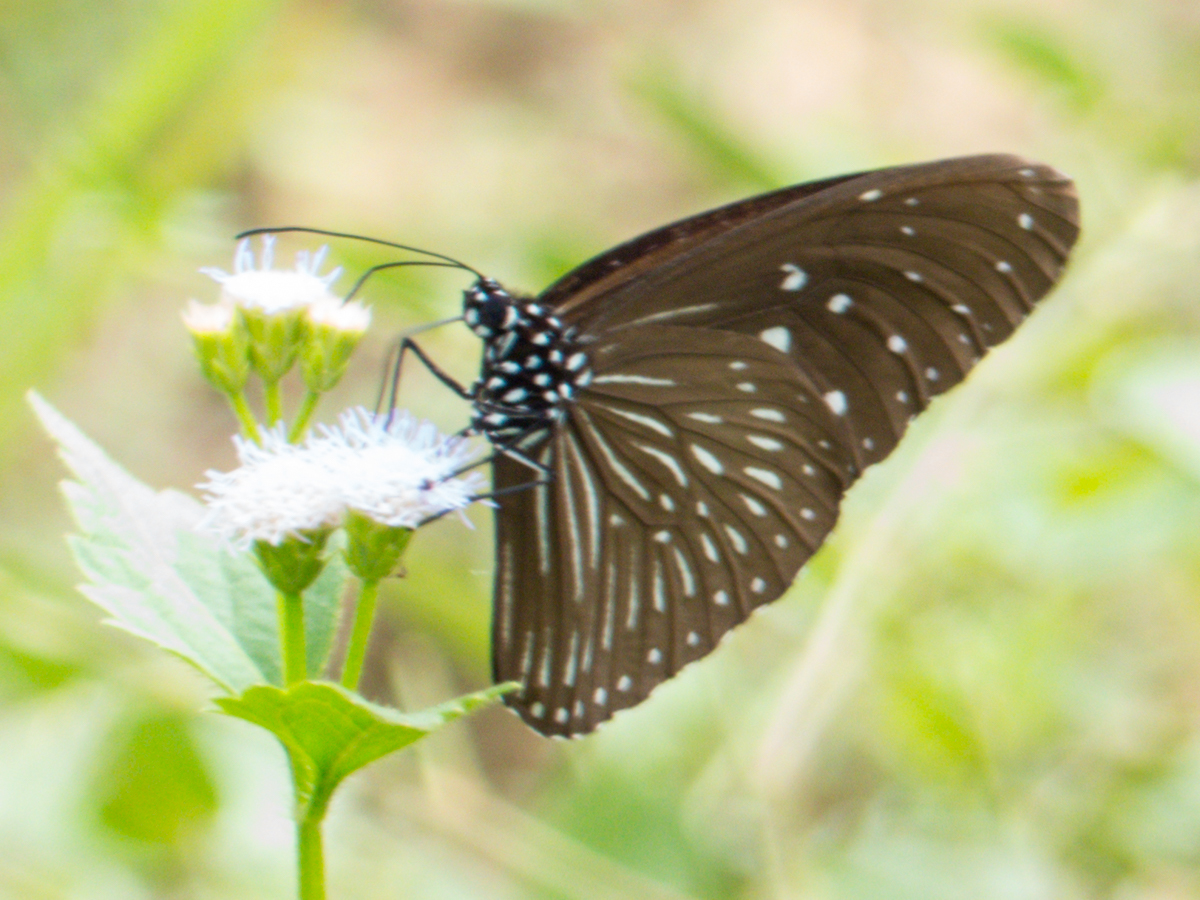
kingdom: Animalia
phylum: Arthropoda
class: Insecta
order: Lepidoptera
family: Nymphalidae
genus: Euploea
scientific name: Euploea mulciber
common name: Striped blue crow butterfly
